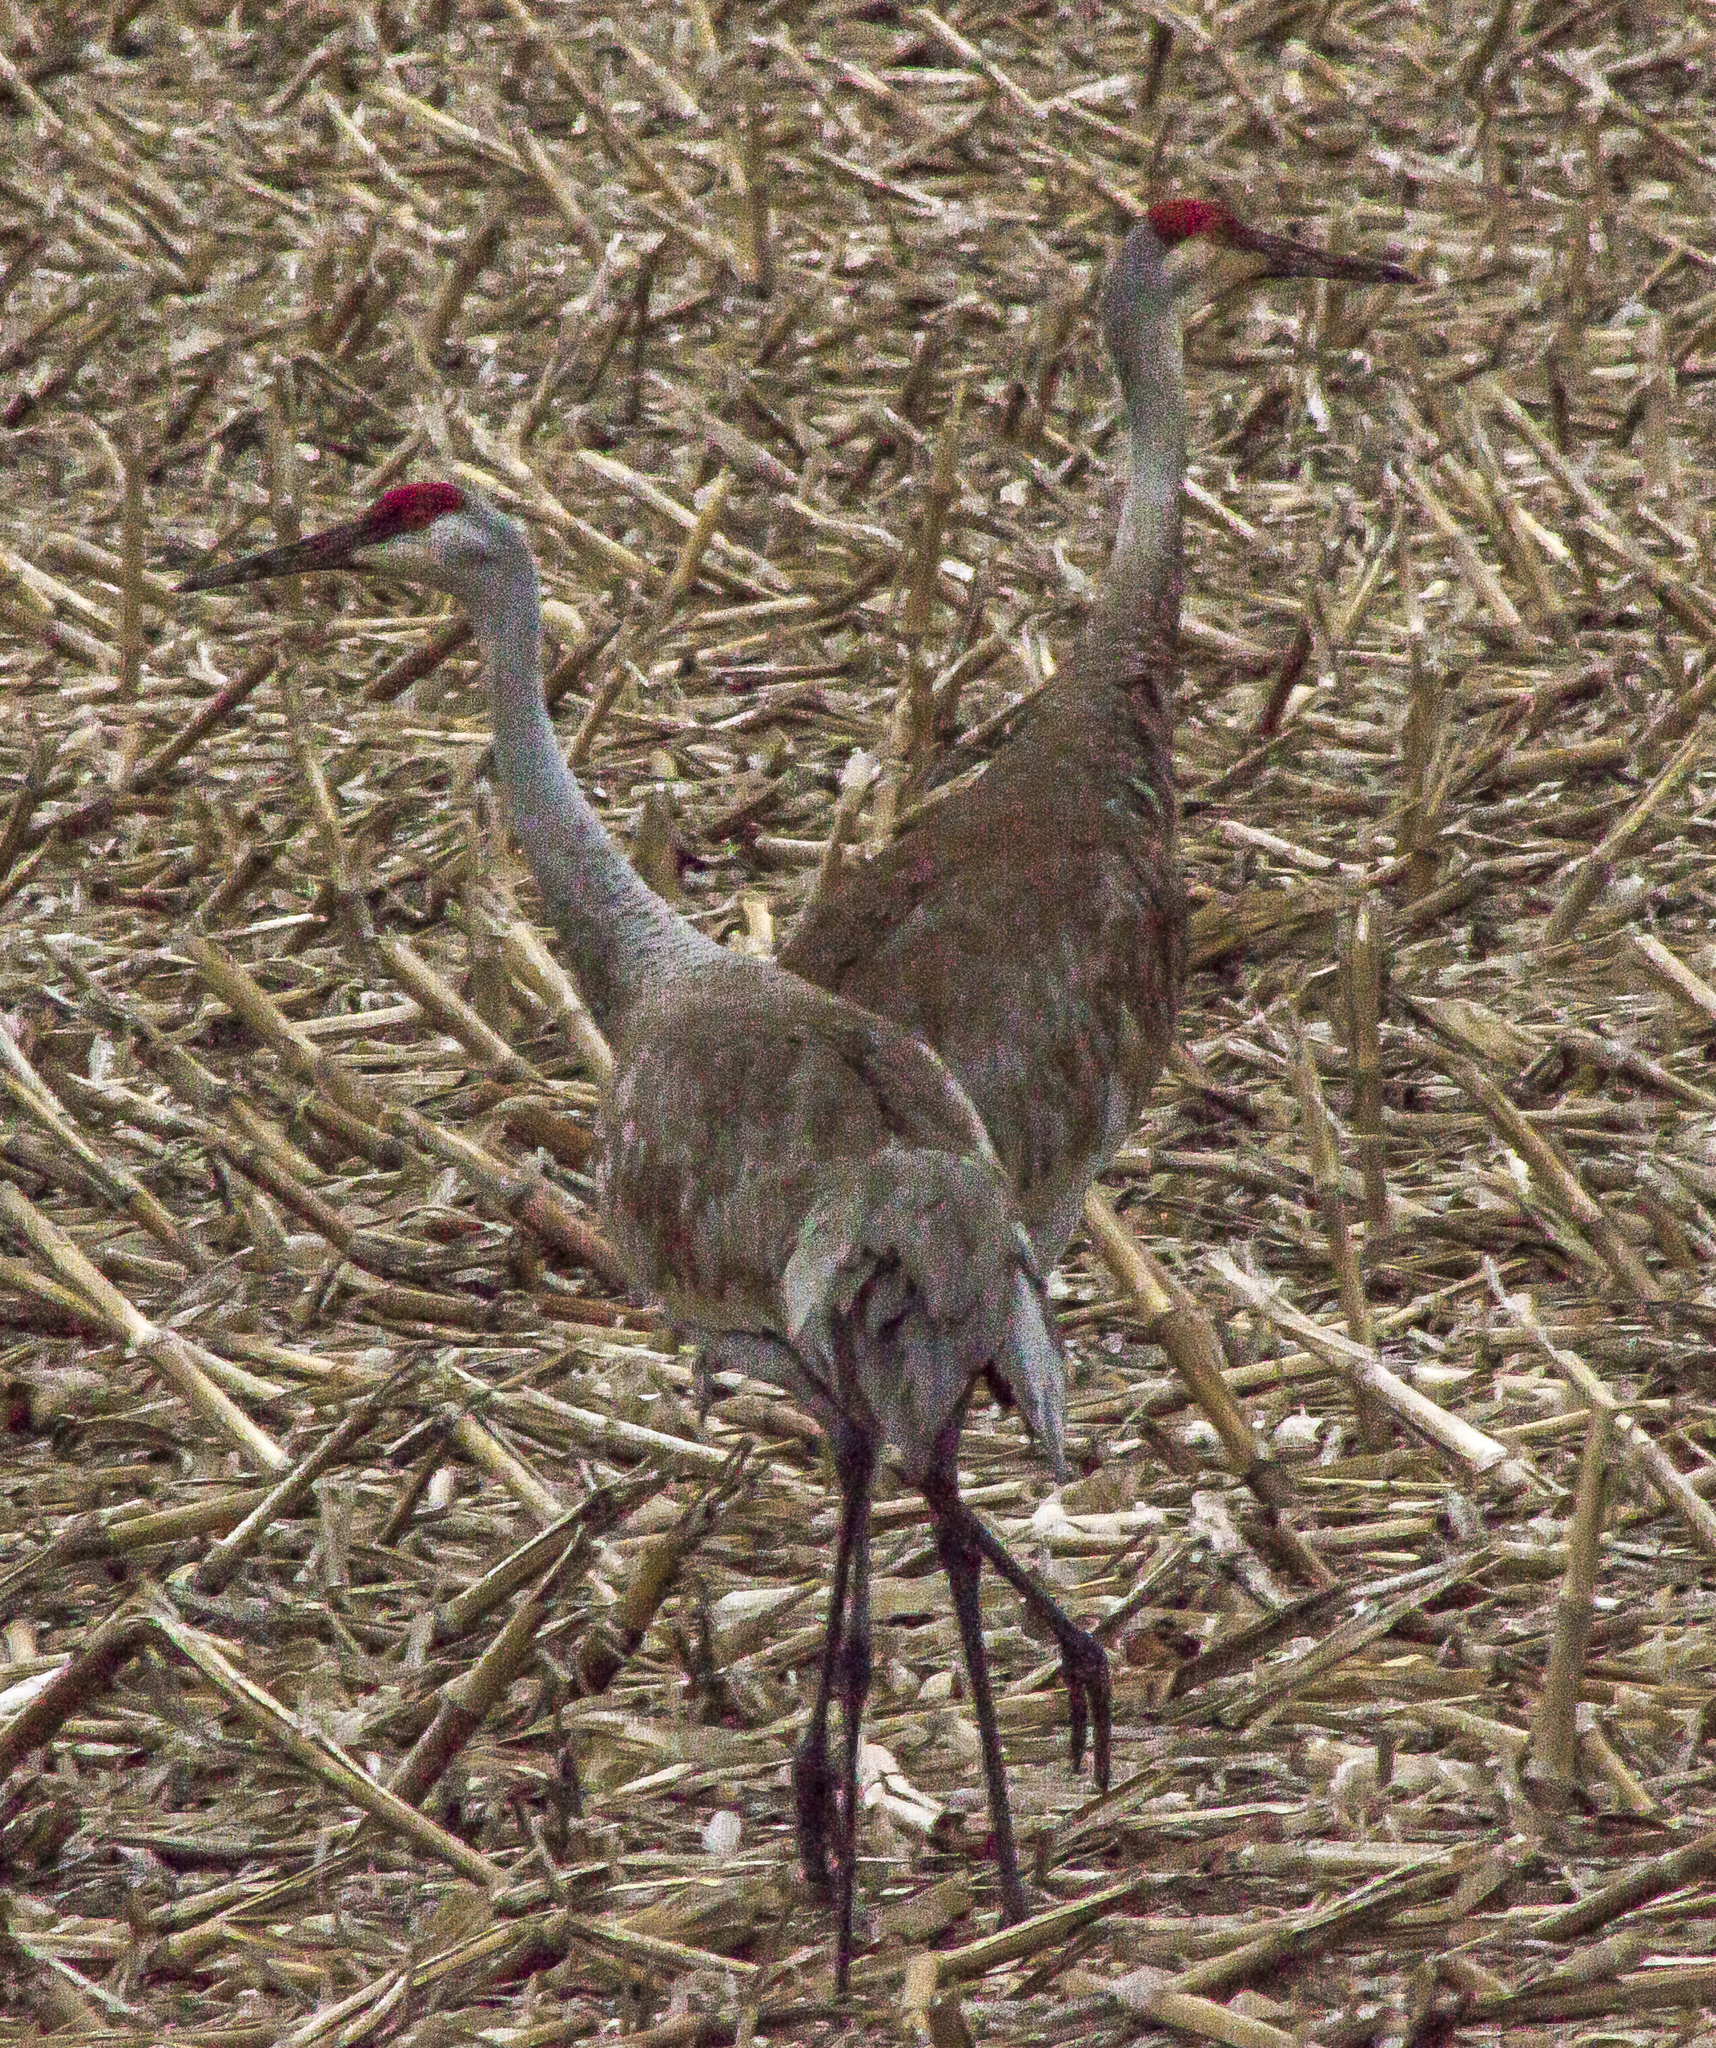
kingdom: Animalia
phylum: Chordata
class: Aves
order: Gruiformes
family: Gruidae
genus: Grus
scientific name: Grus canadensis
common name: Sandhill crane
